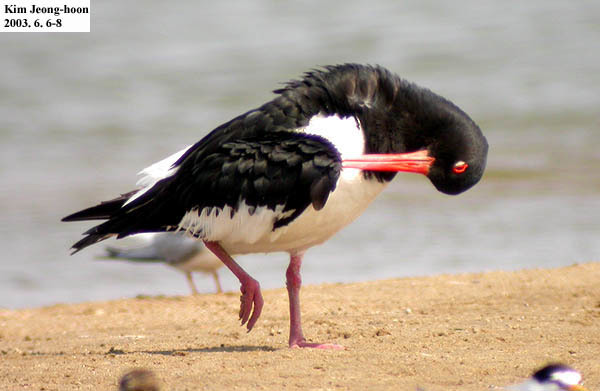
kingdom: Animalia
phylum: Chordata
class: Aves
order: Charadriiformes
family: Haematopodidae
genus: Haematopus
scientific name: Haematopus ostralegus
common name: Eurasian oystercatcher
